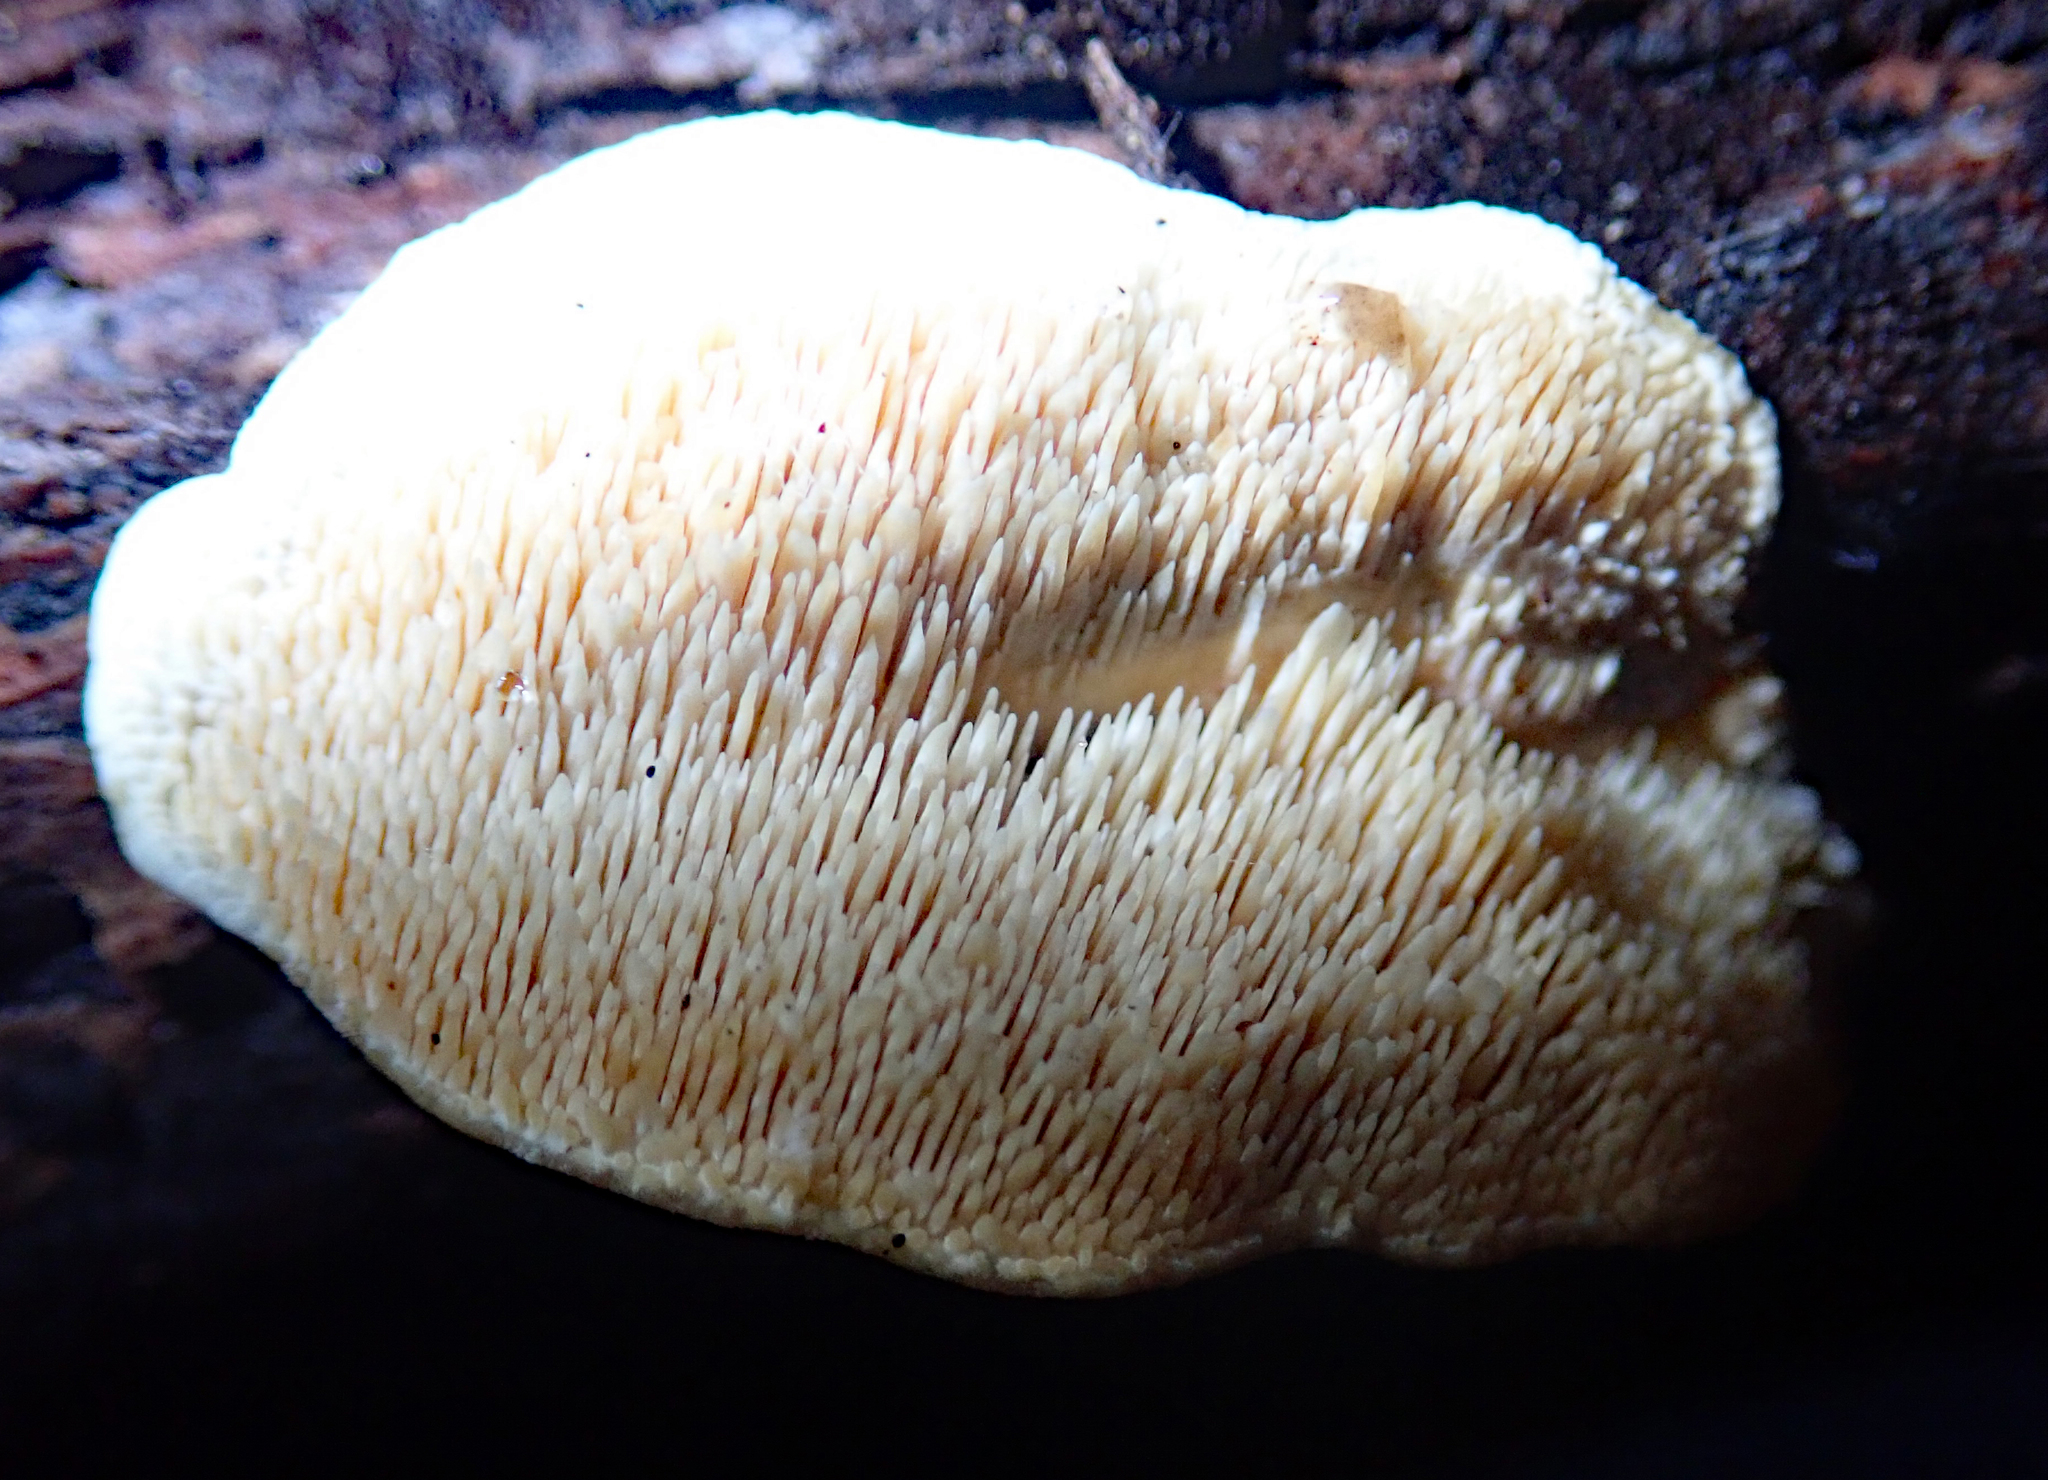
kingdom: Fungi
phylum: Basidiomycota
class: Agaricomycetes
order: Polyporales
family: Steccherinaceae
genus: Steccherinum
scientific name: Steccherinum rawakense
